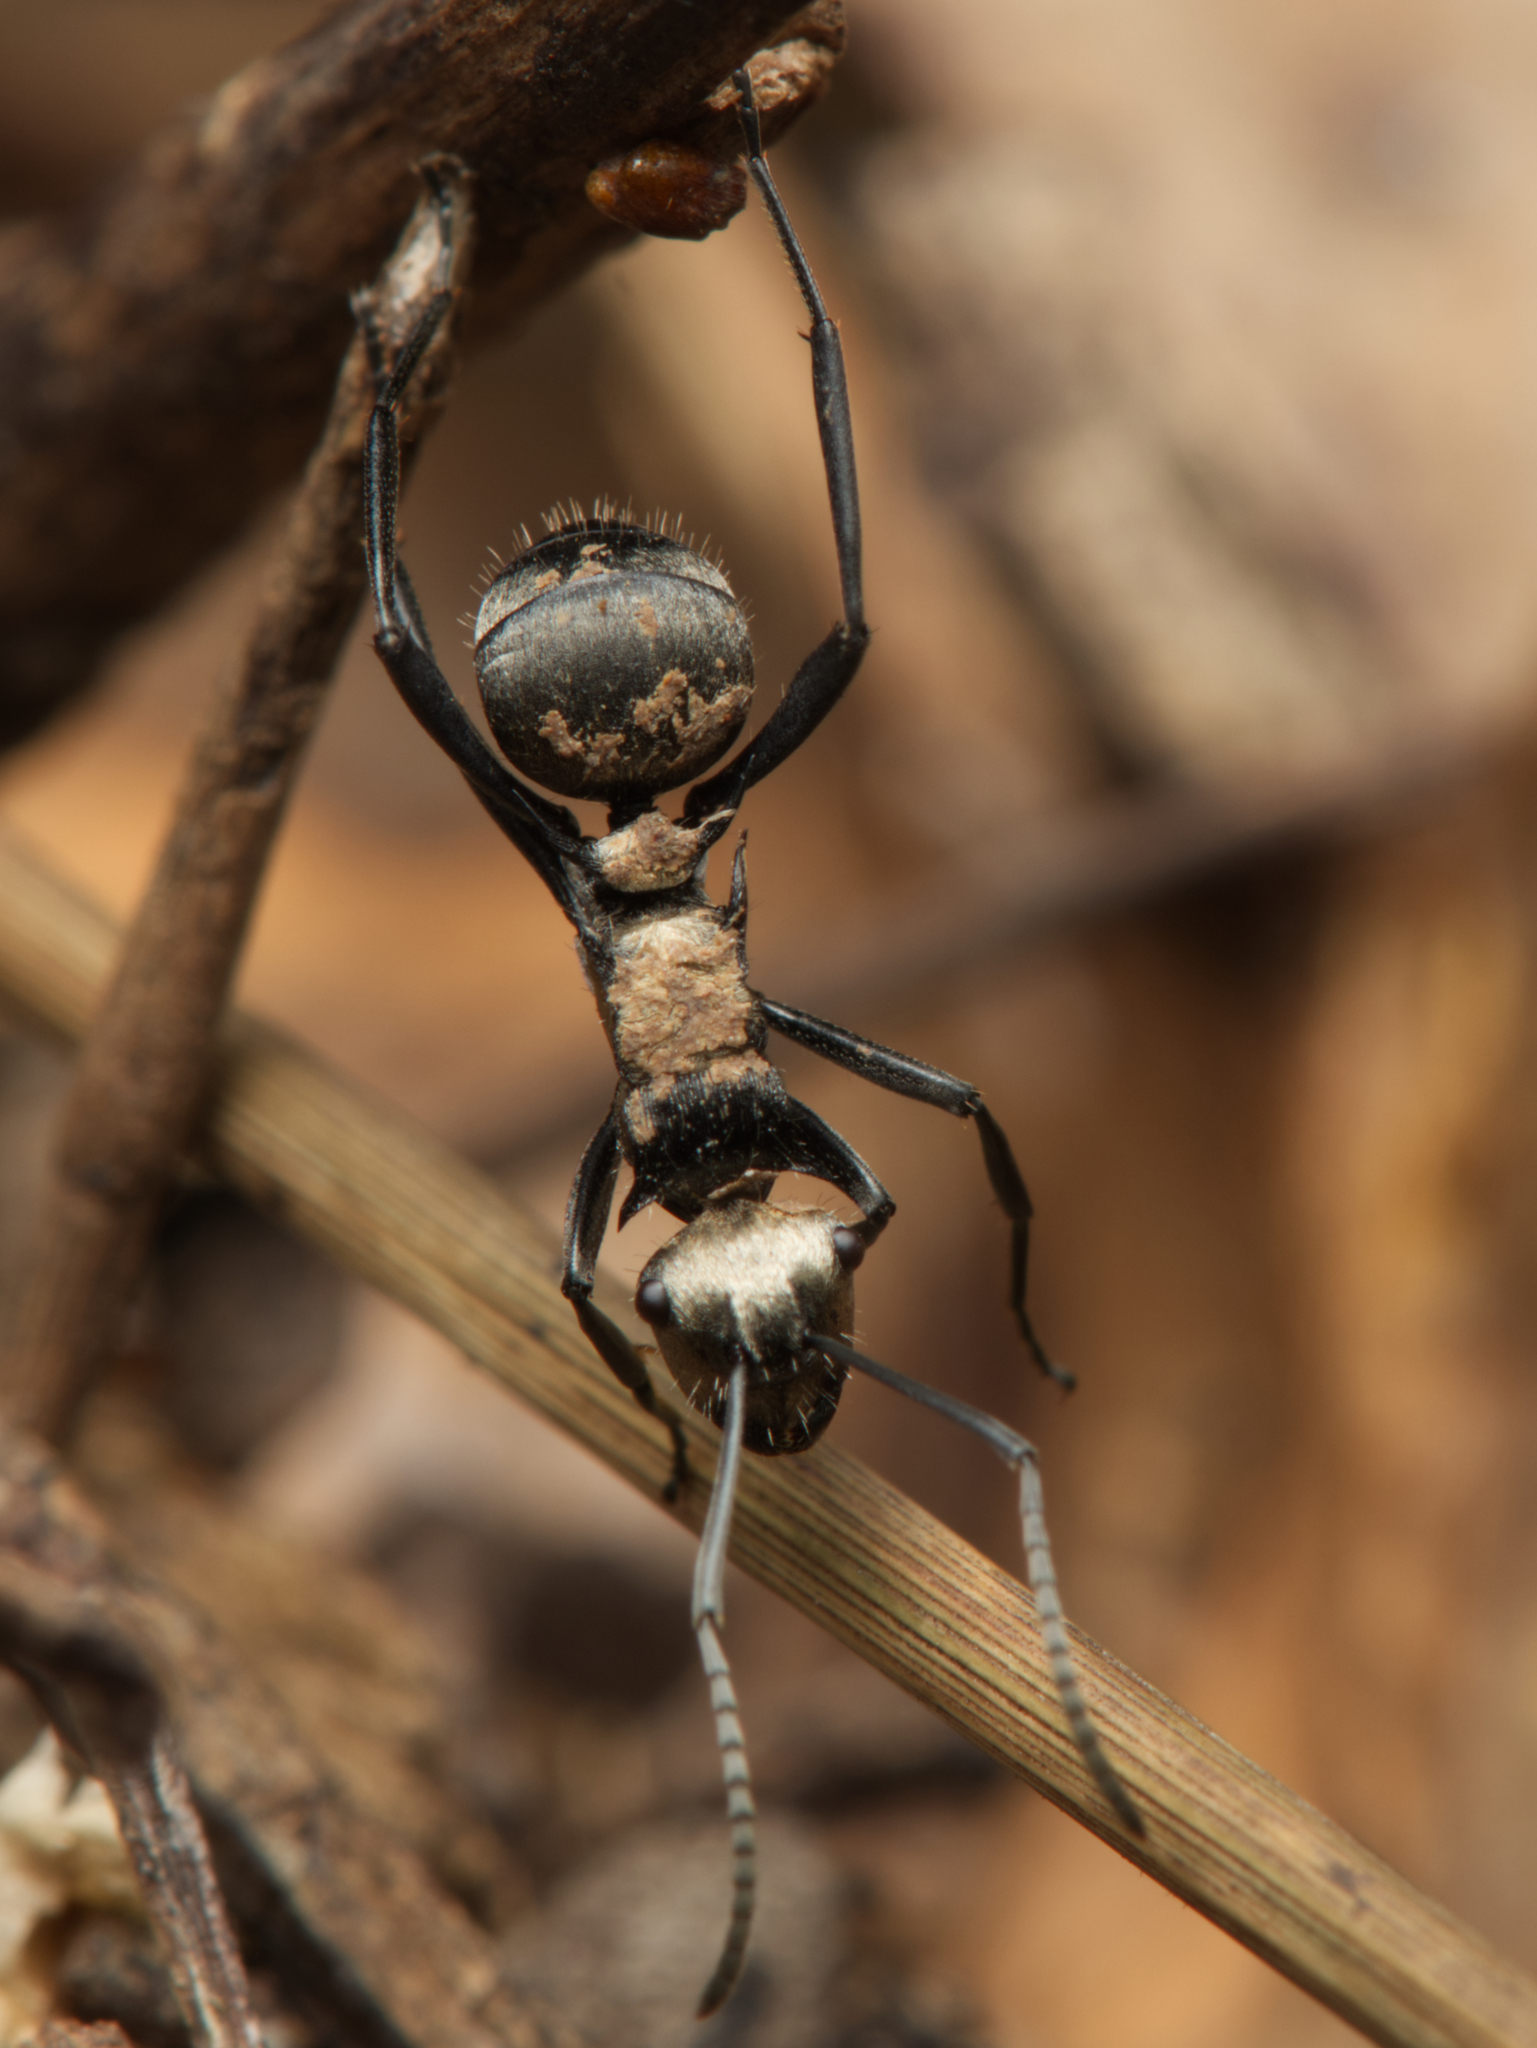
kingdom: Animalia
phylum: Arthropoda
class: Insecta
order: Hymenoptera
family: Formicidae
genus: Polyrhachis
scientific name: Polyrhachis daemeli
